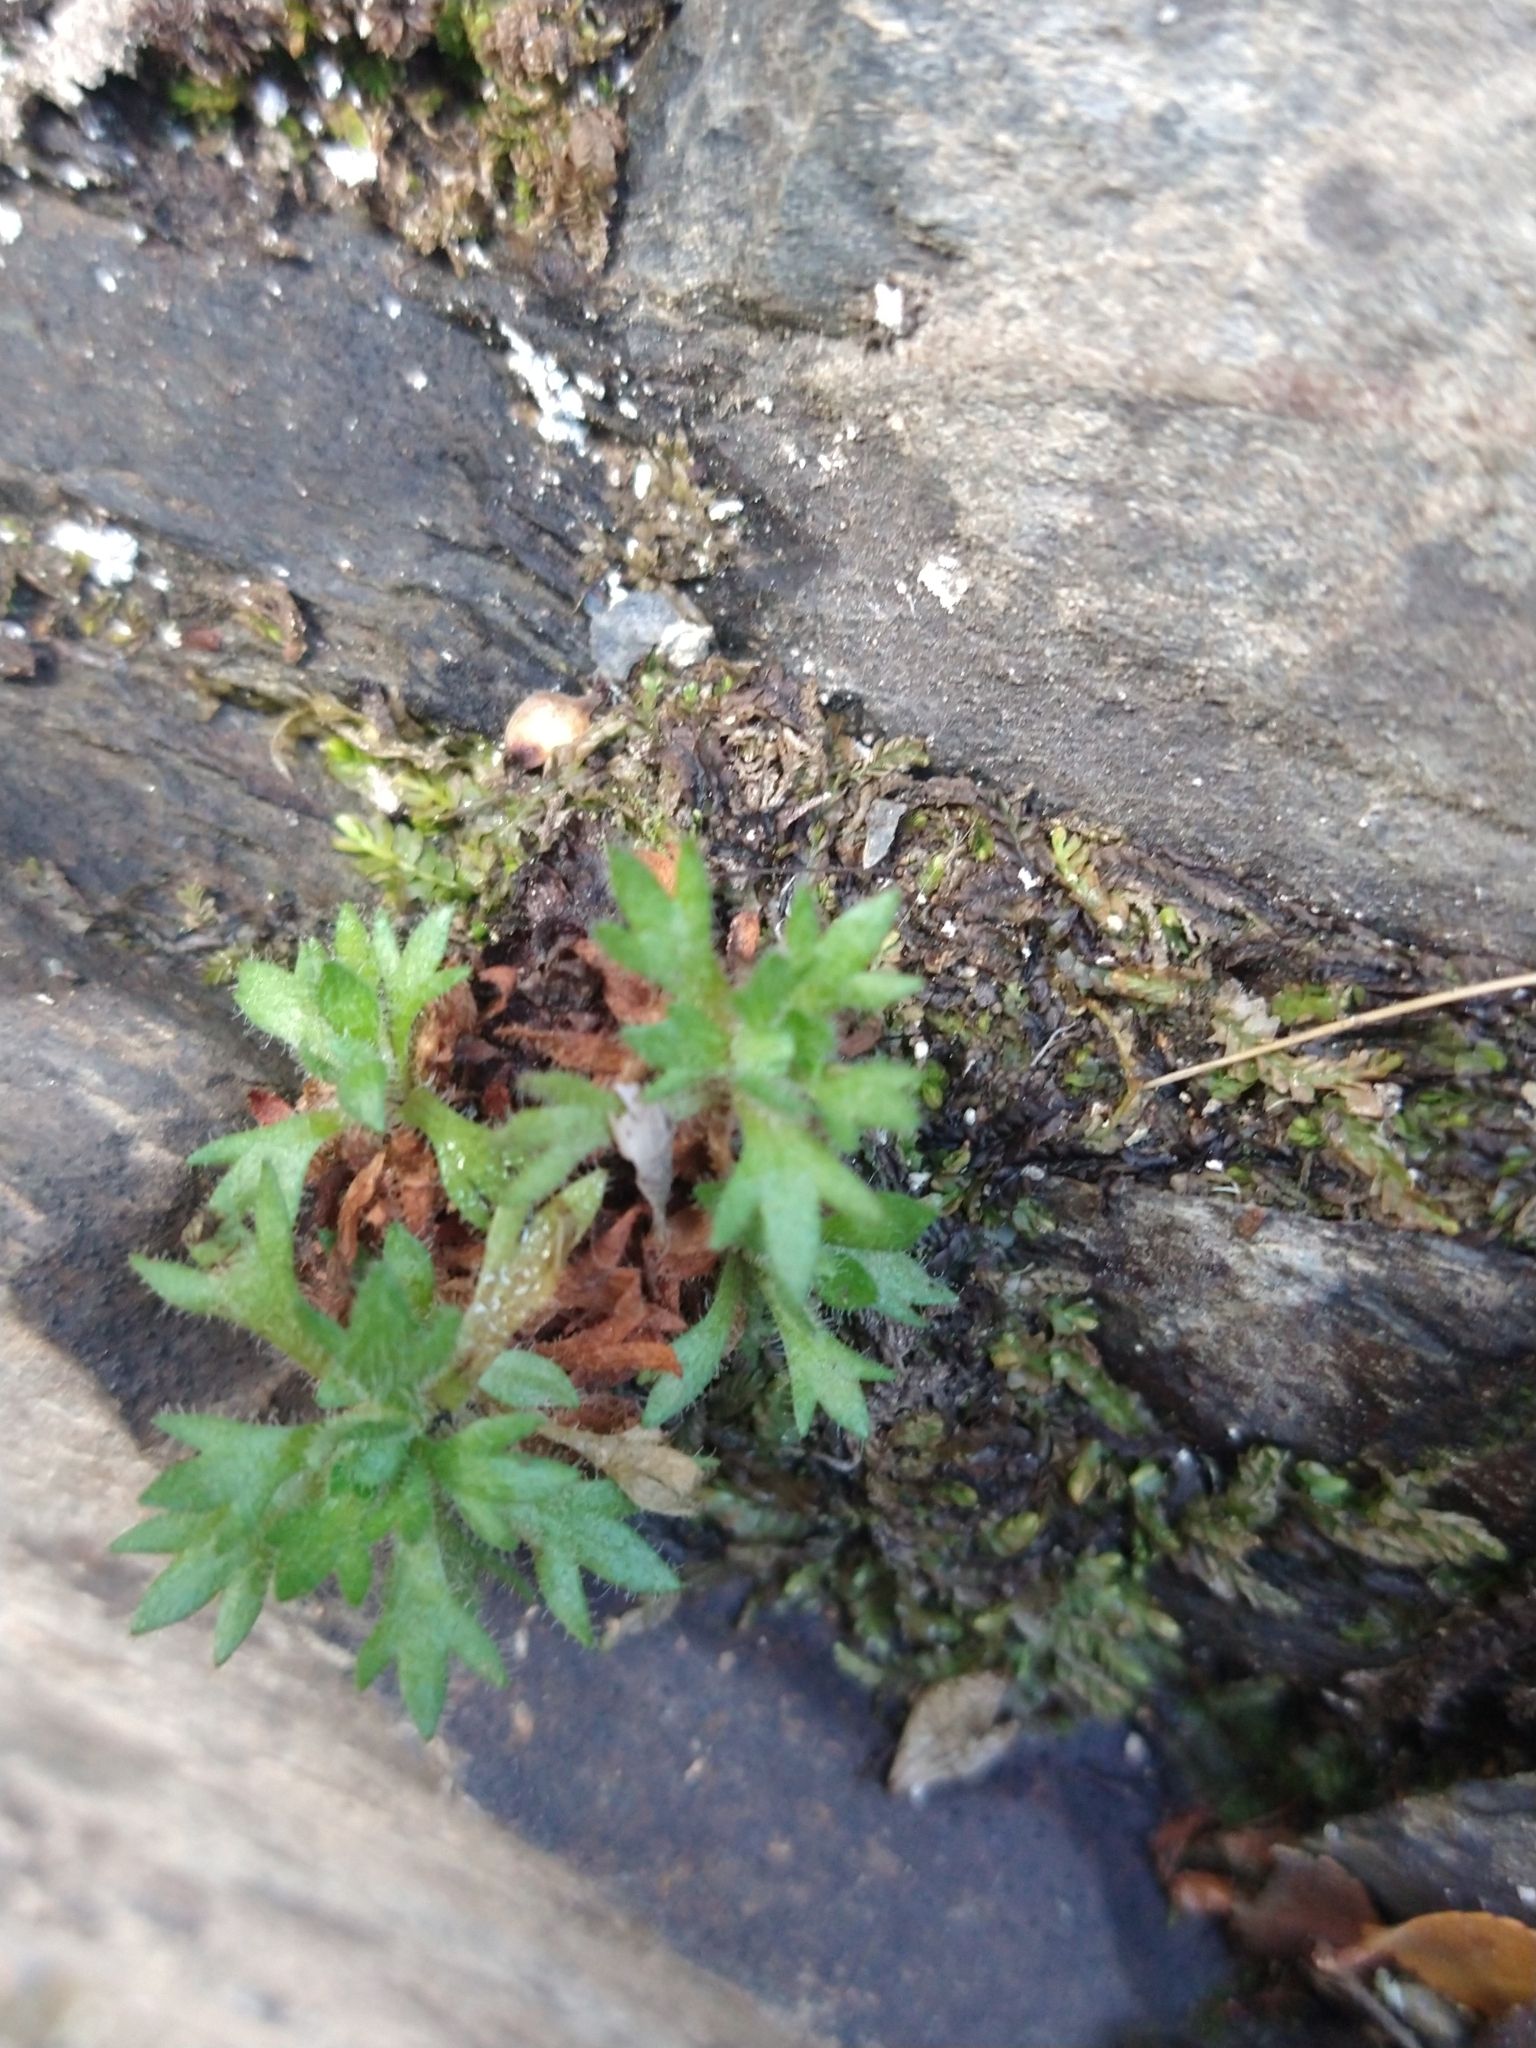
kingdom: Plantae
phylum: Tracheophyta
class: Magnoliopsida
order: Saxifragales
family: Saxifragaceae
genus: Saxifraga
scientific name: Saxifraga magellanica
